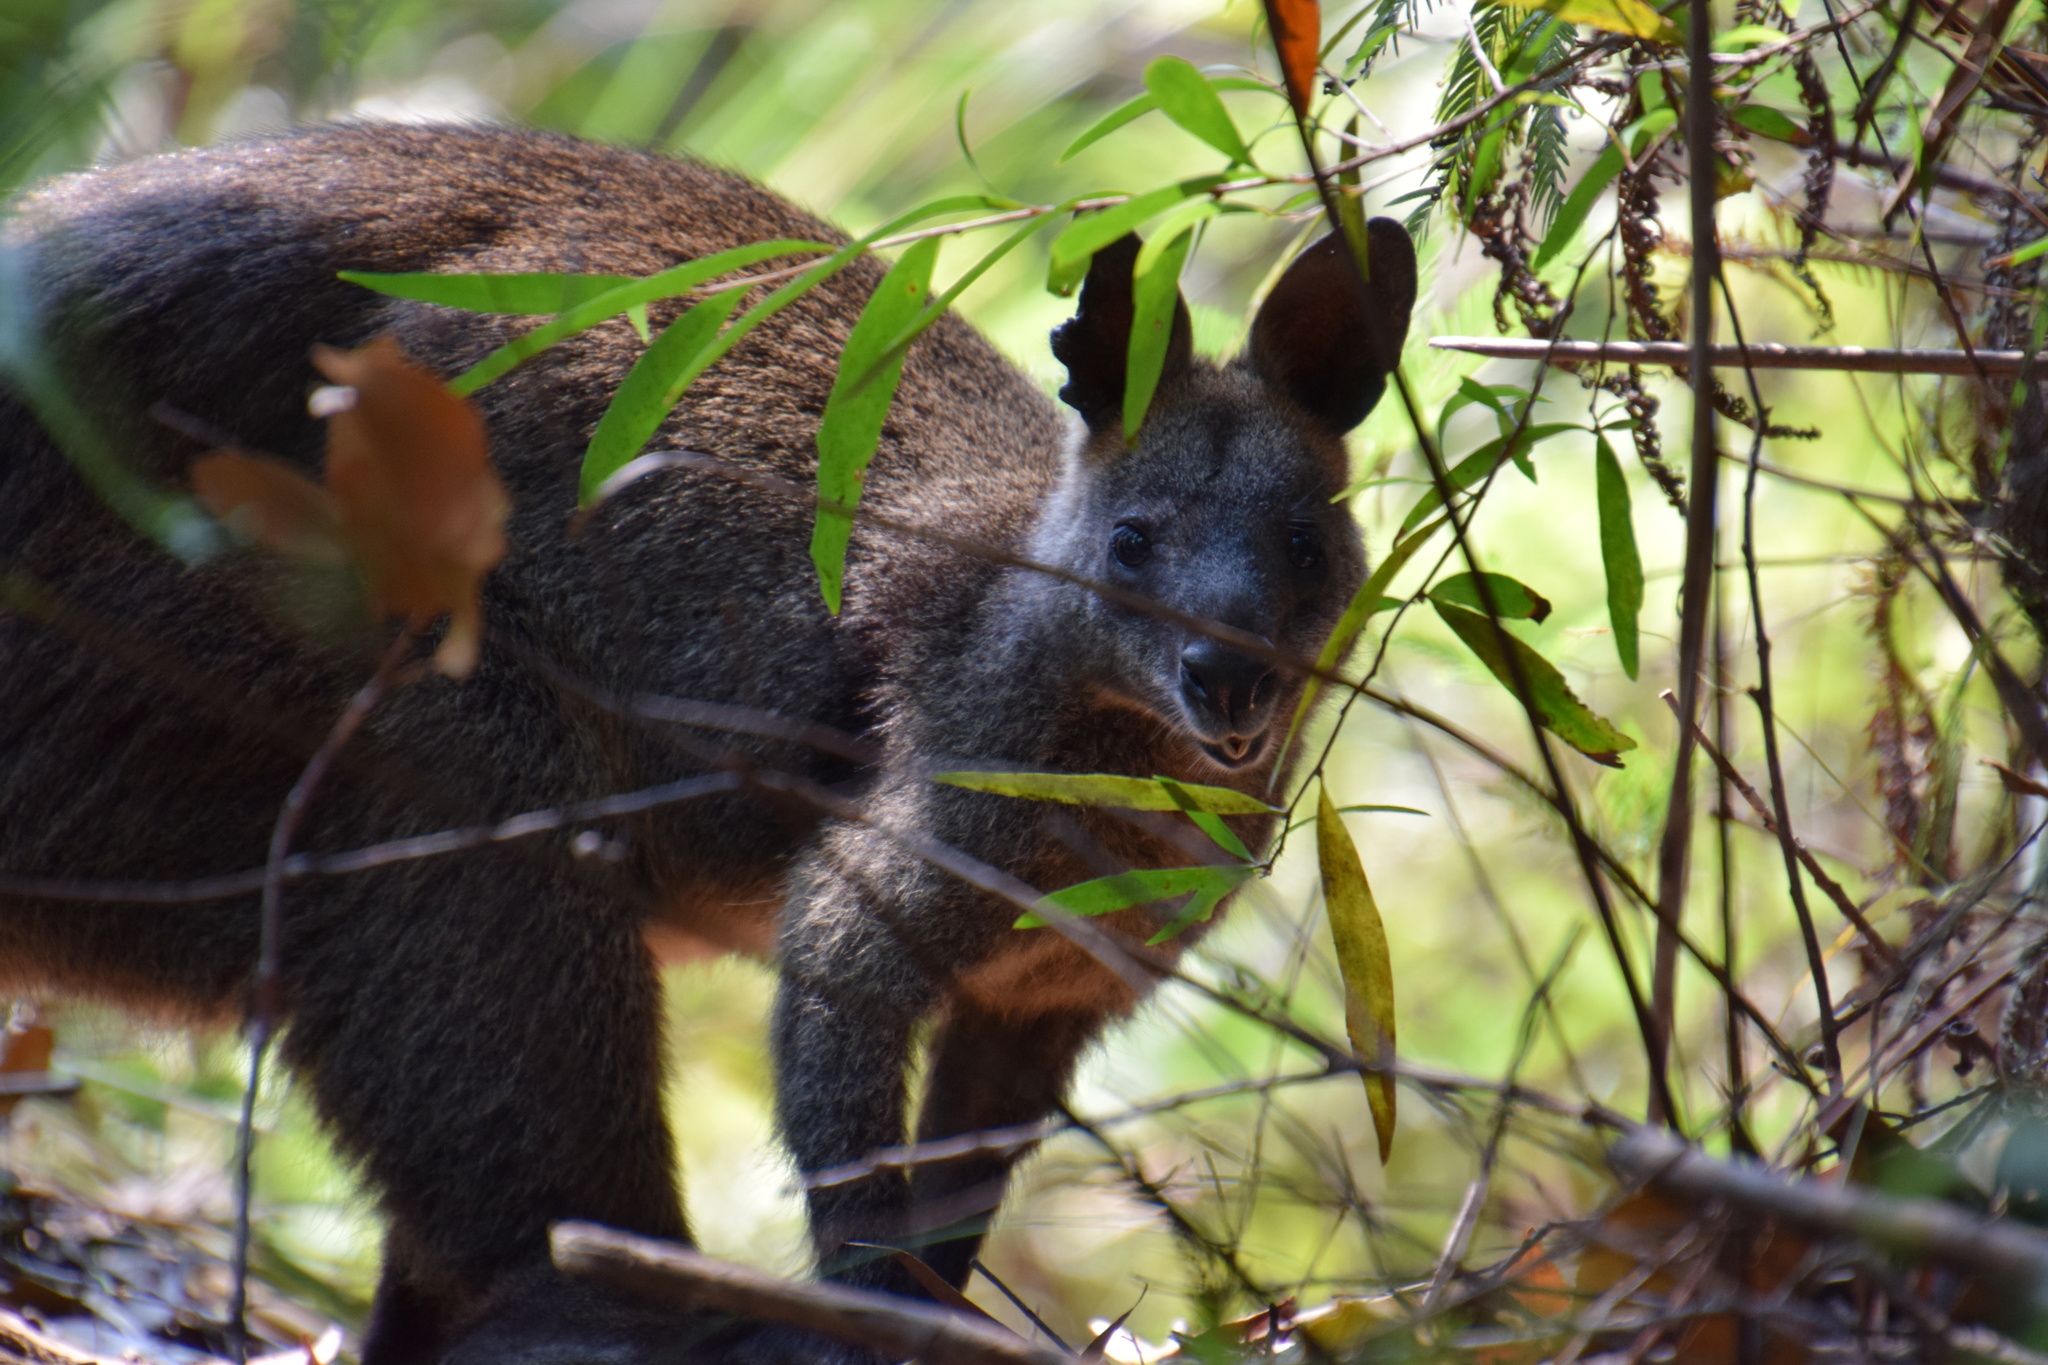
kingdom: Animalia
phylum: Chordata
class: Mammalia
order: Diprotodontia
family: Macropodidae
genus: Wallabia
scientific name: Wallabia bicolor
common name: Swamp wallaby
